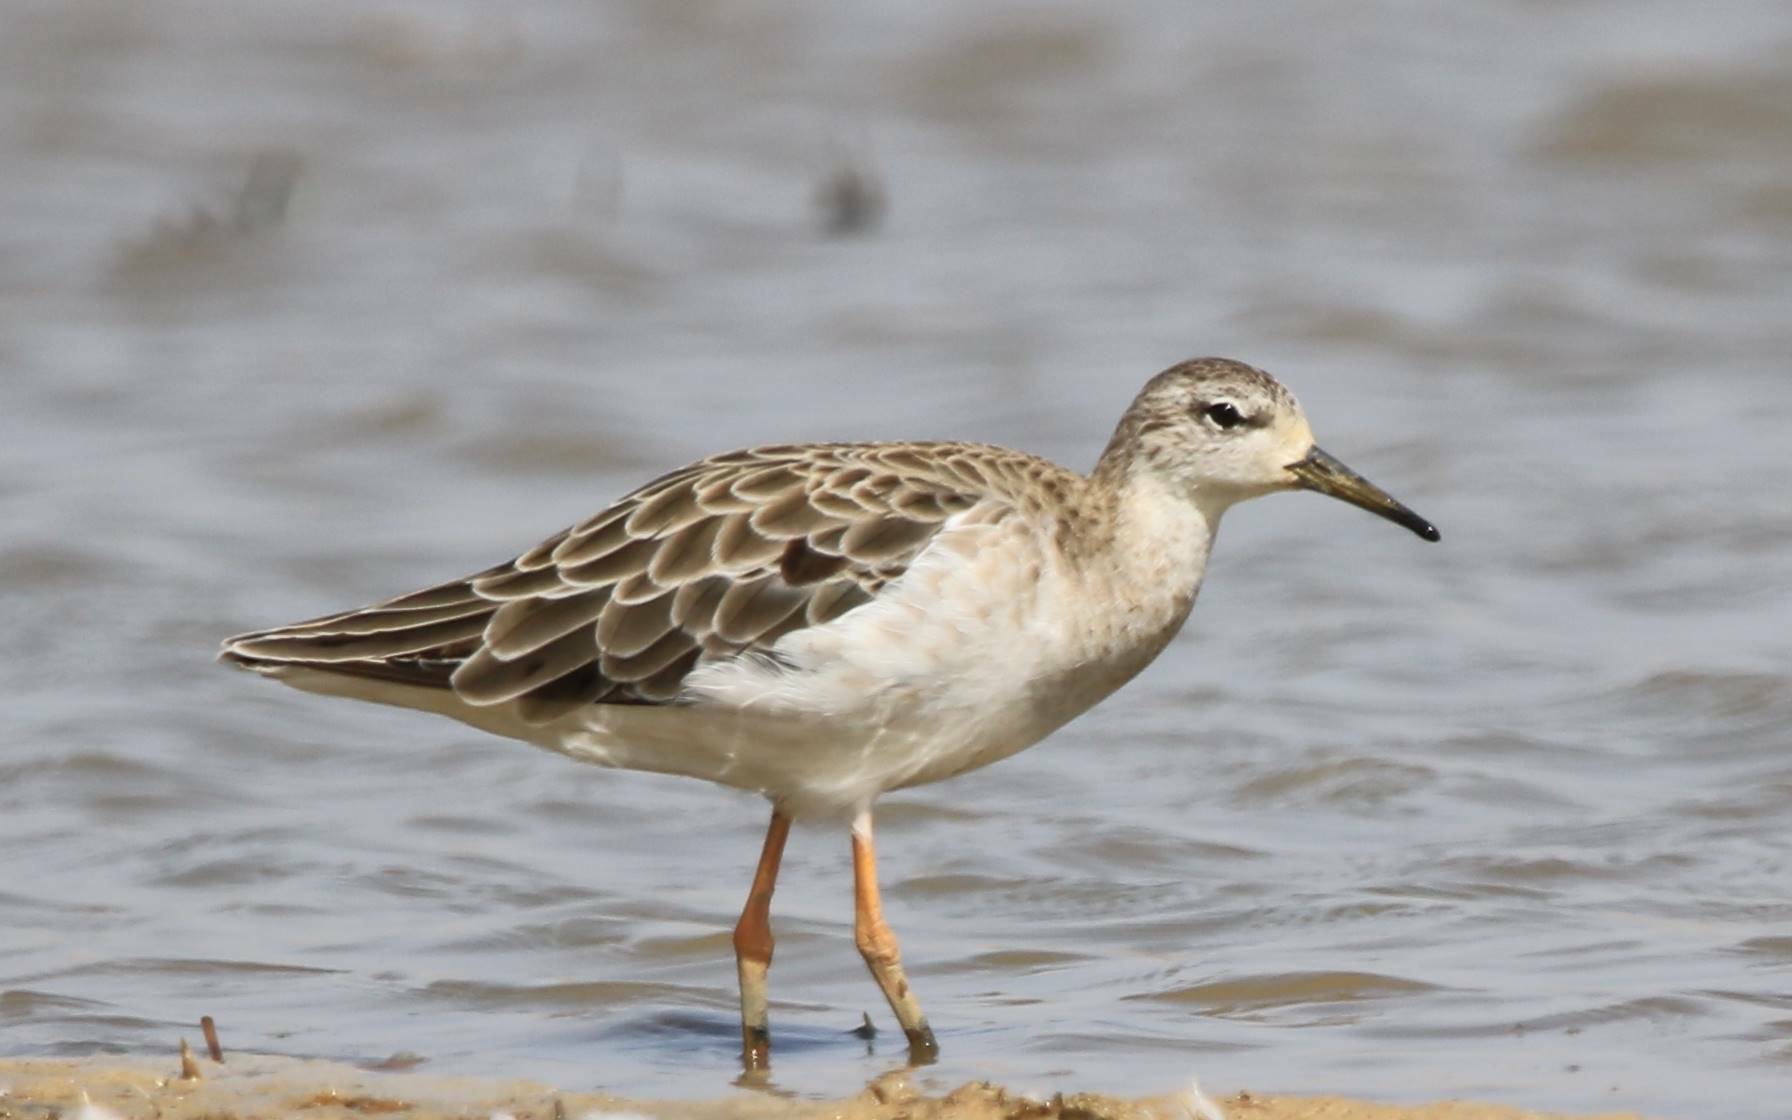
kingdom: Animalia
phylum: Chordata
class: Aves
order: Charadriiformes
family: Scolopacidae
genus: Calidris
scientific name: Calidris pugnax
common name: Ruff
